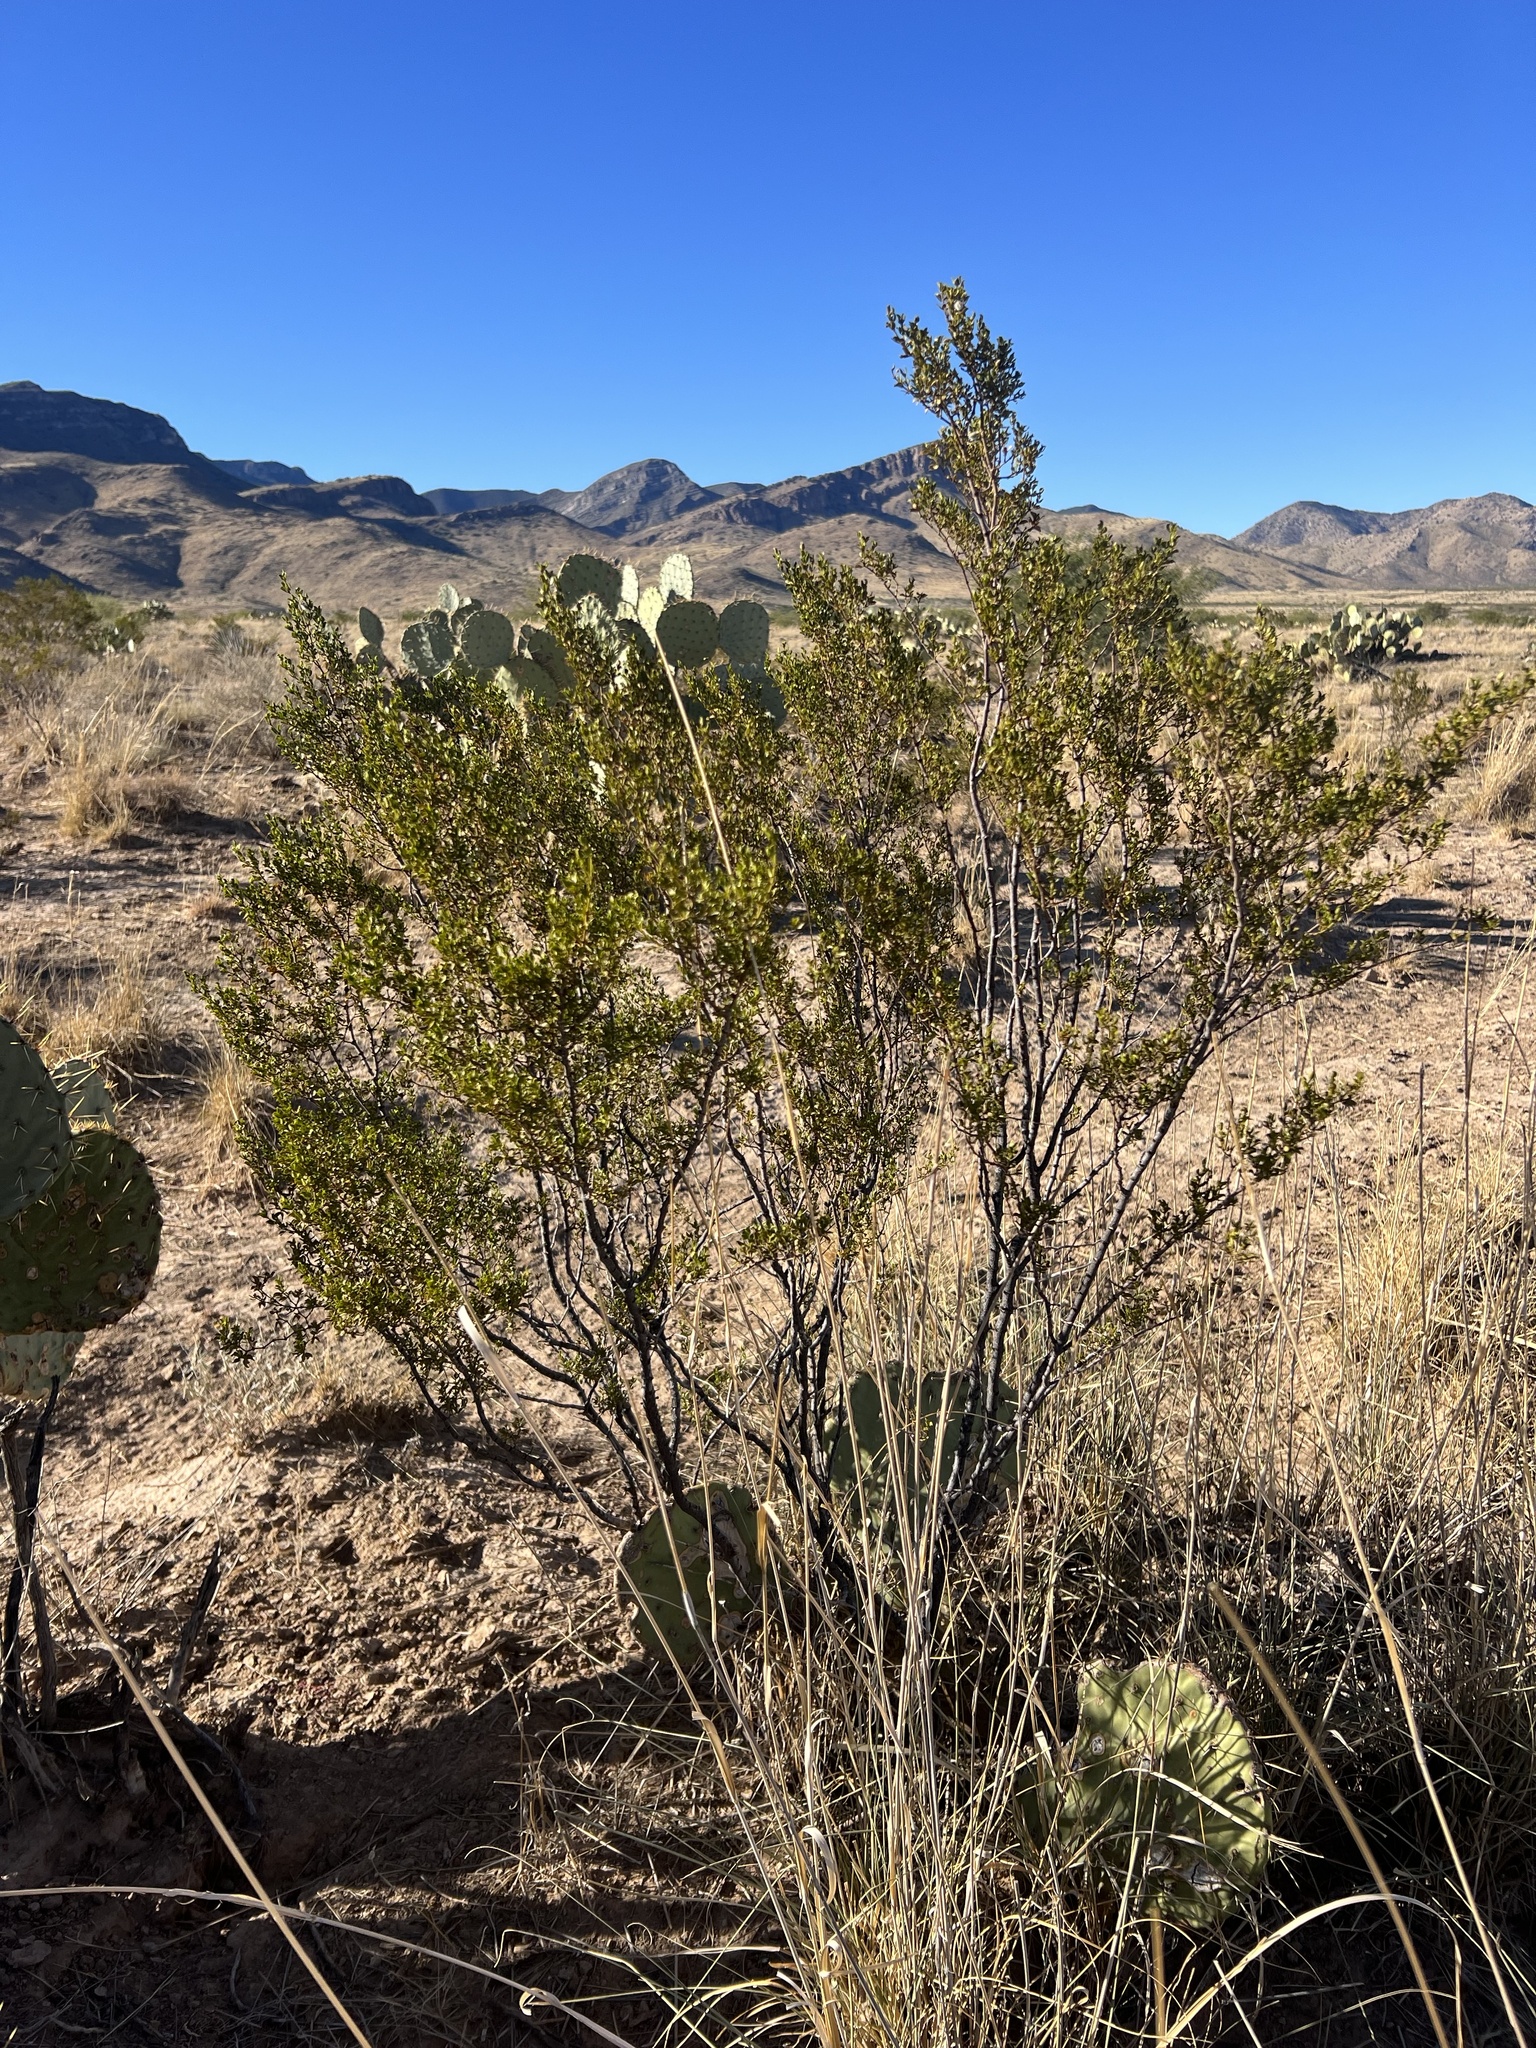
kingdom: Plantae
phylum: Tracheophyta
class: Magnoliopsida
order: Zygophyllales
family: Zygophyllaceae
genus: Larrea
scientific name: Larrea tridentata
